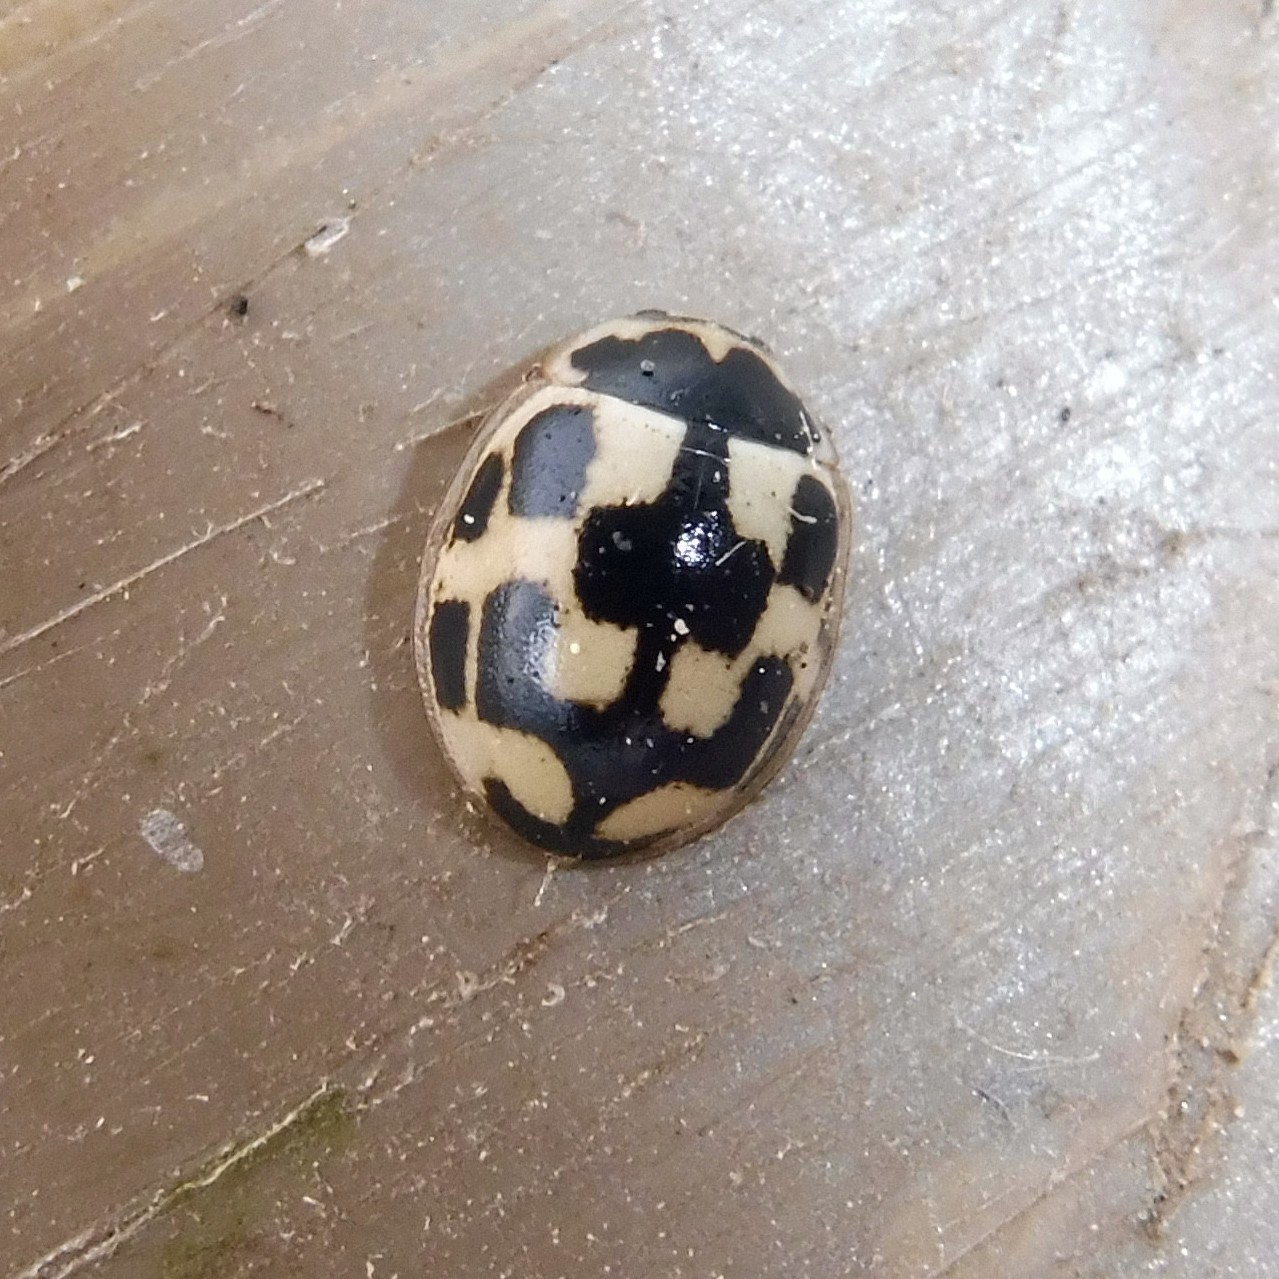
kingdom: Animalia
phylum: Arthropoda
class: Insecta
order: Coleoptera
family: Coccinellidae
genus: Propylaea
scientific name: Propylaea quatuordecimpunctata
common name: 14-spotted ladybird beetle
